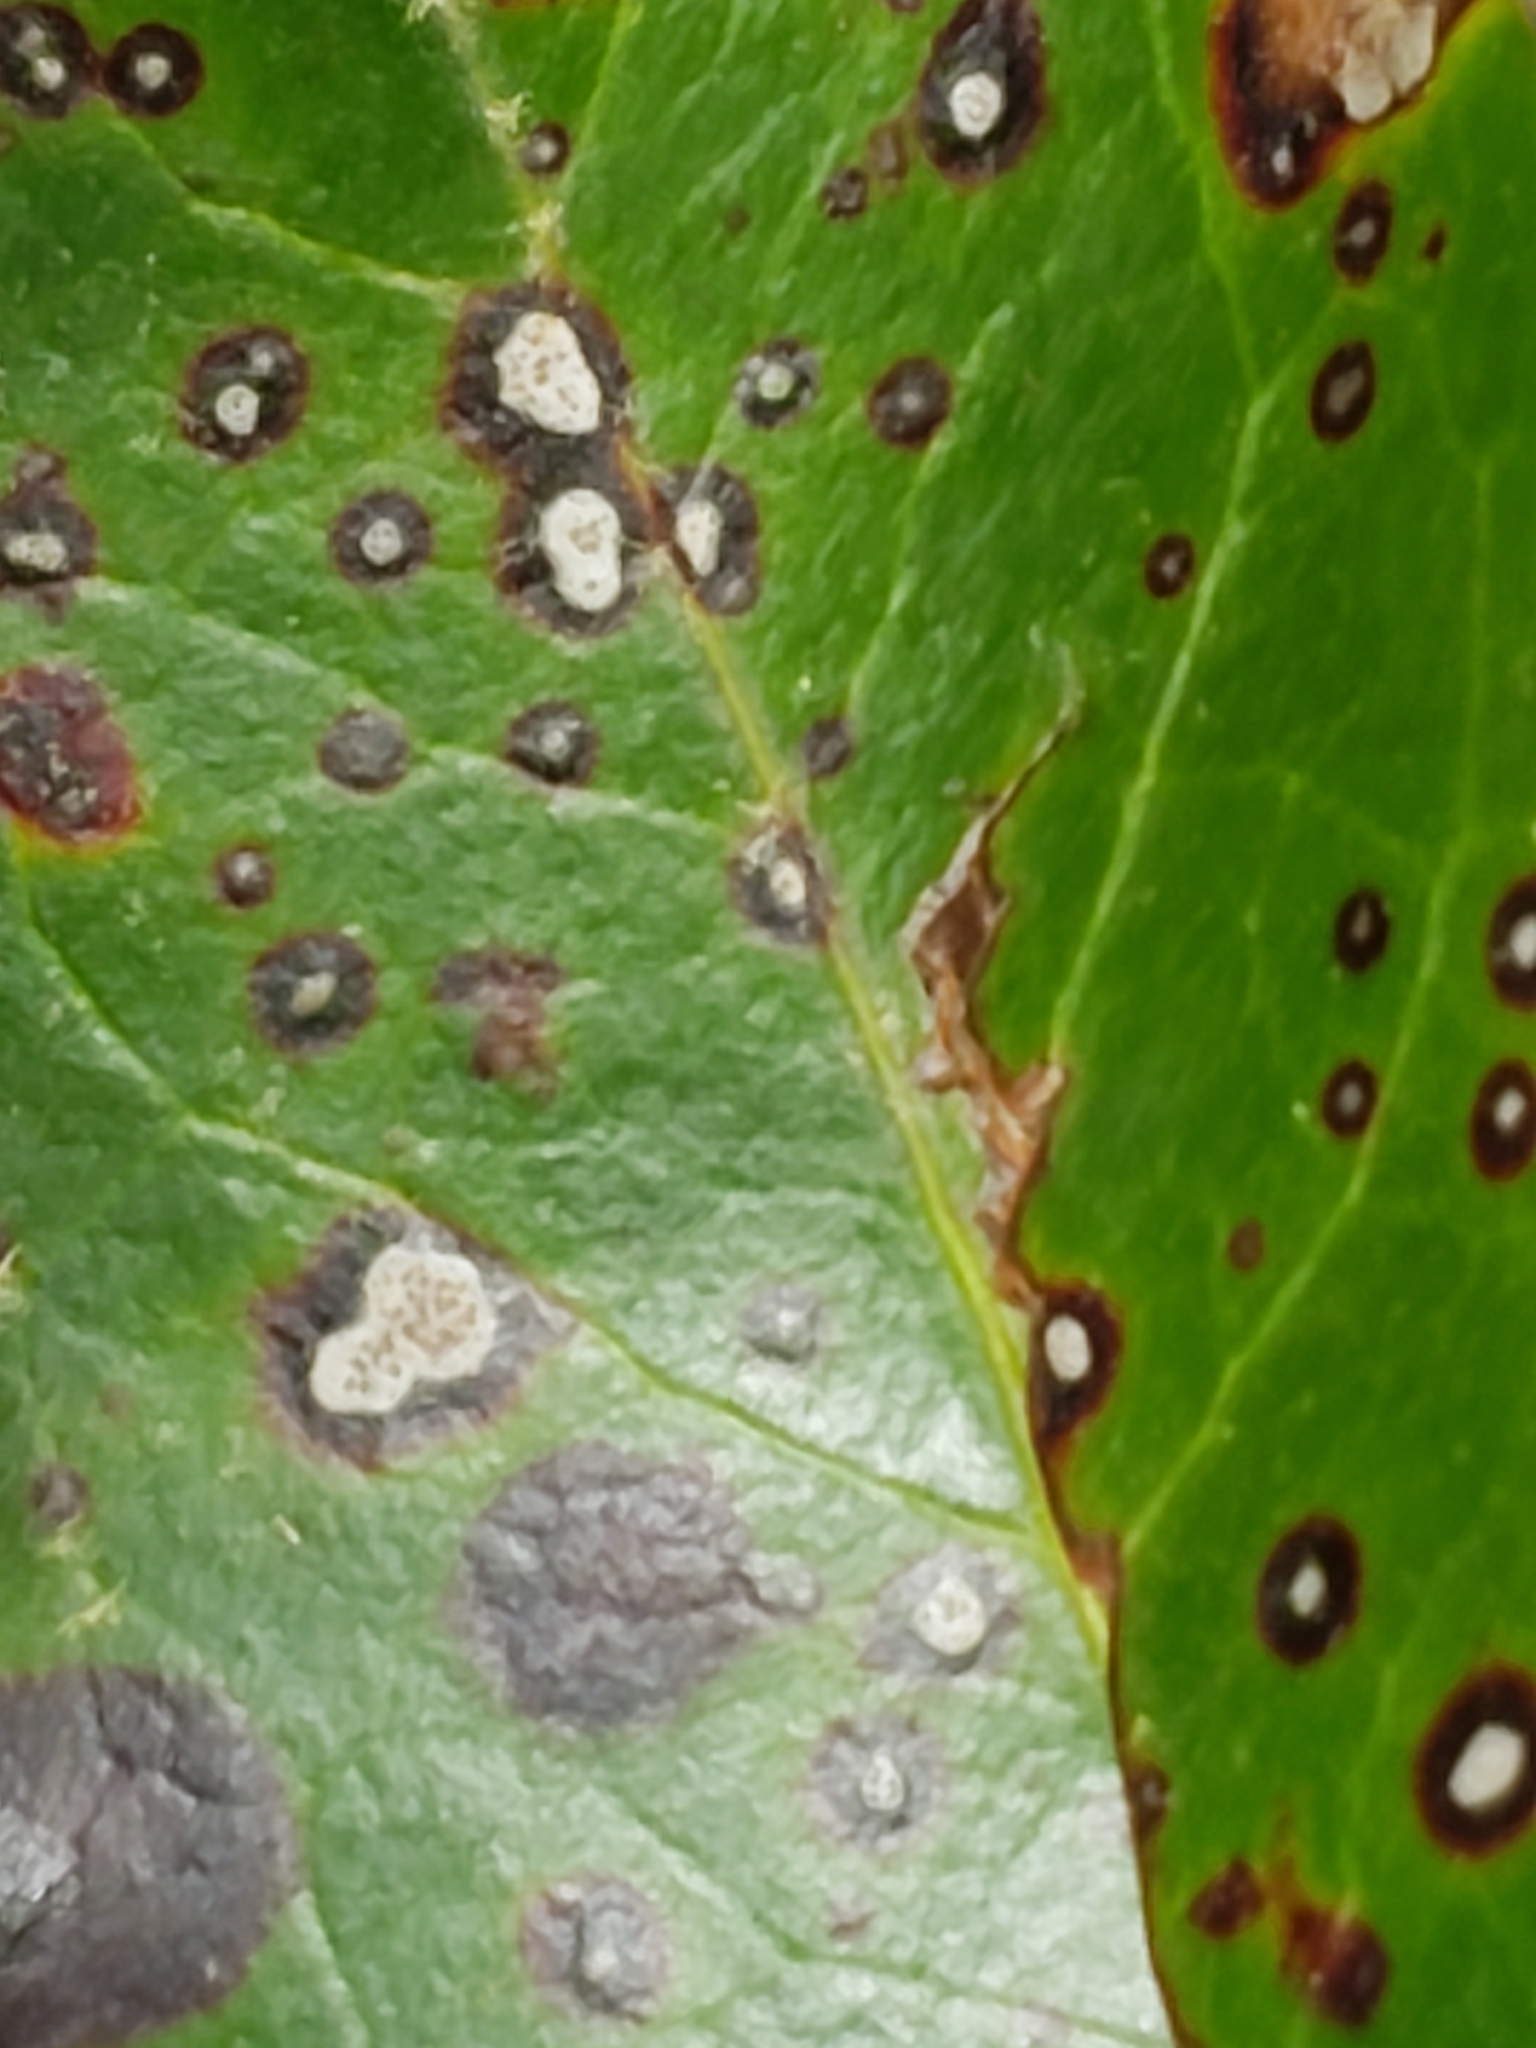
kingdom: Fungi
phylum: Ascomycota
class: Dothideomycetes
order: Mycosphaerellales
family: Mycosphaerellaceae
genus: Mycosphaerella
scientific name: Mycosphaerella colorata
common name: Mountain laurel leaf spot
